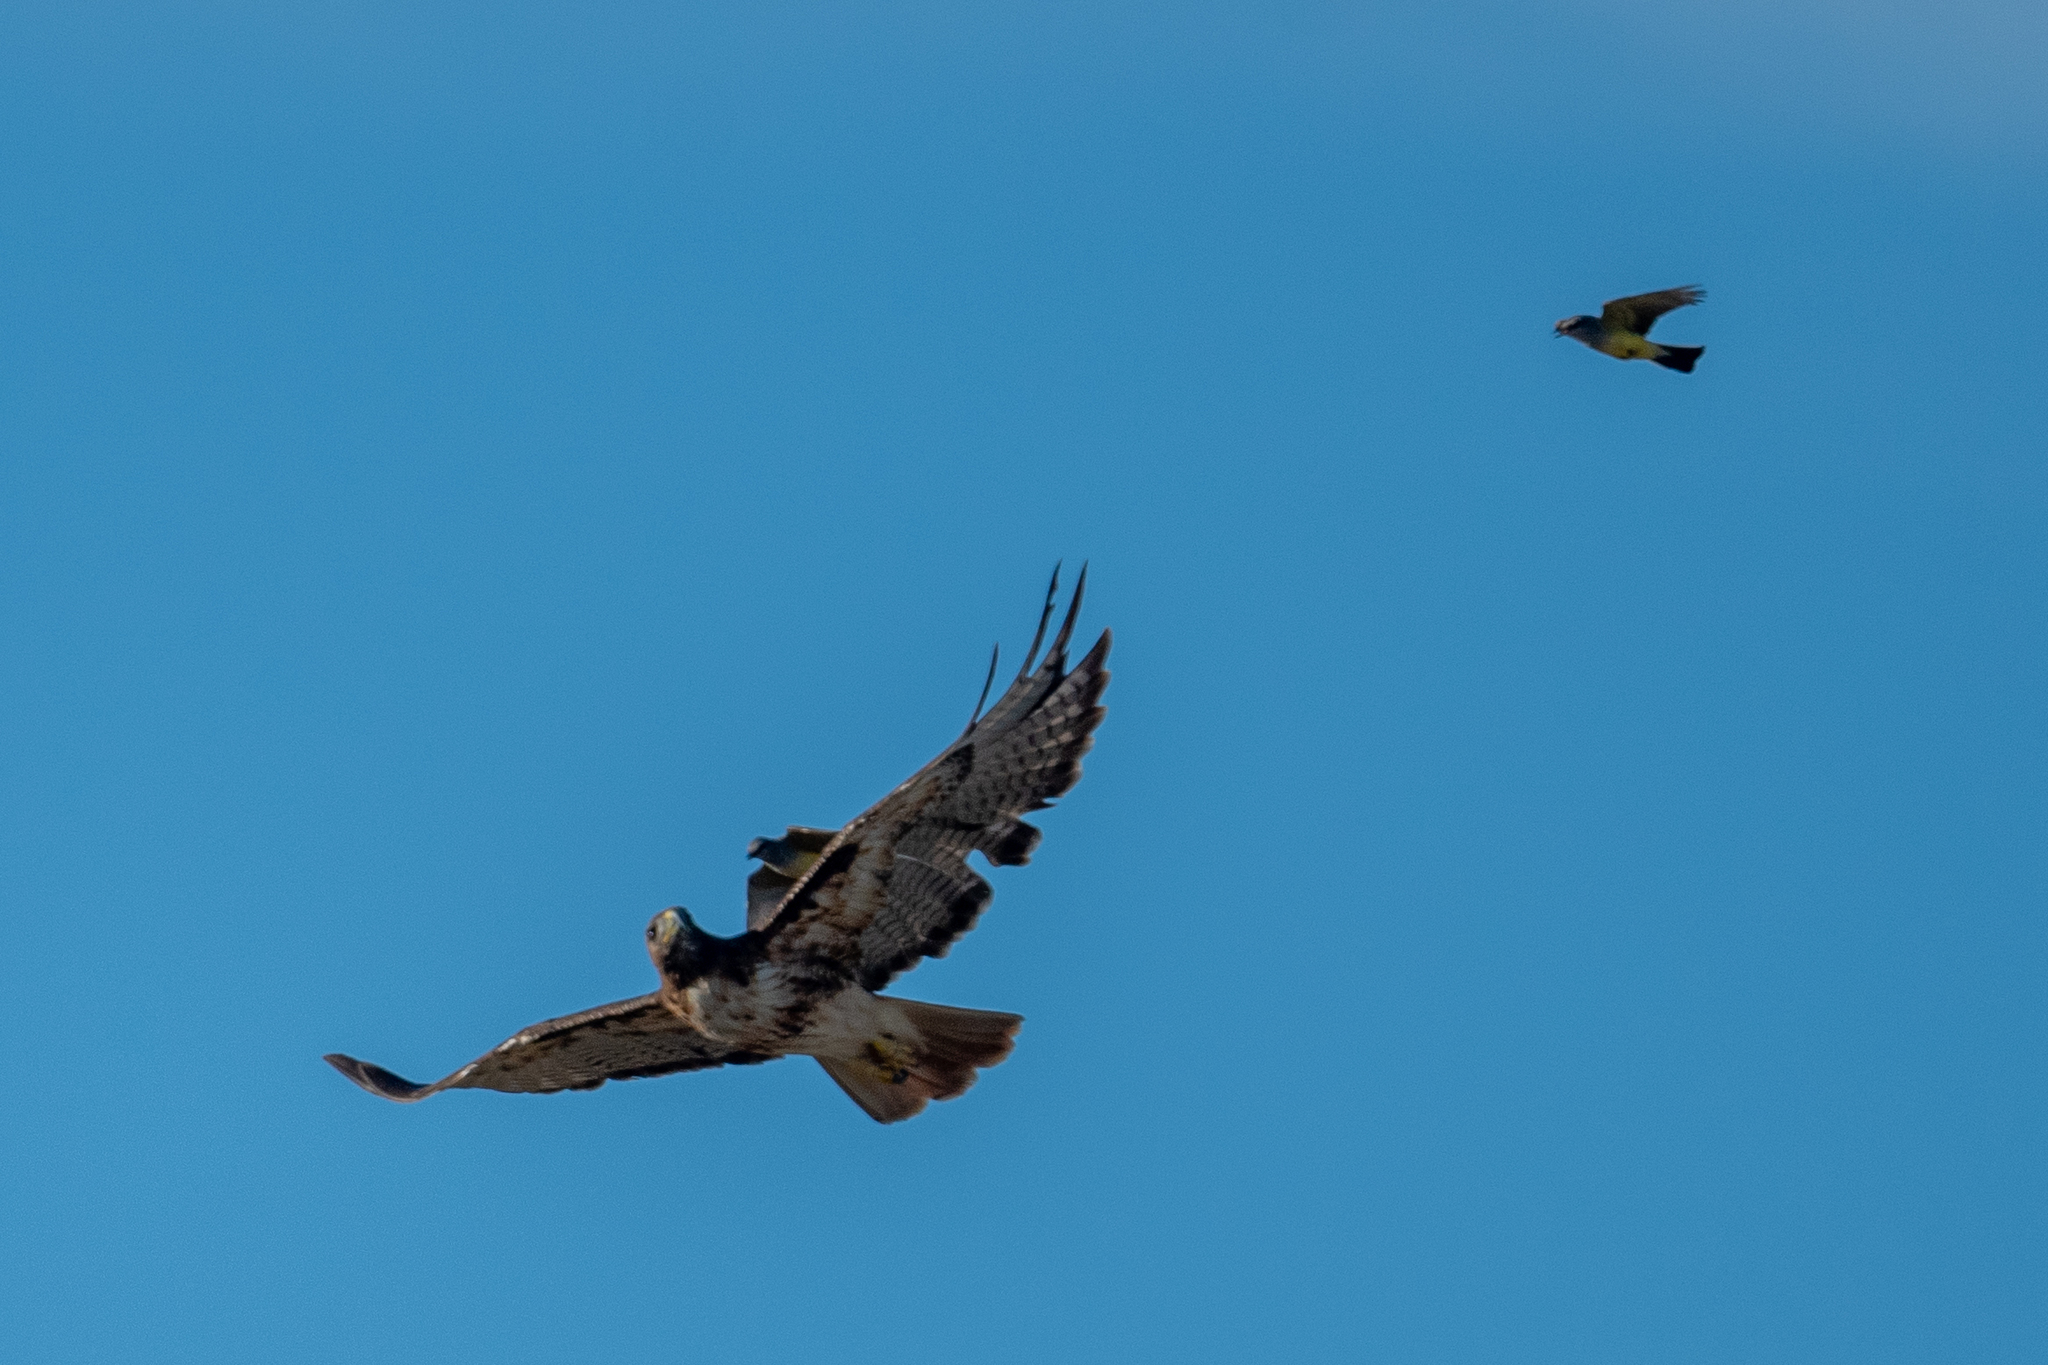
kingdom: Animalia
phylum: Chordata
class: Aves
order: Passeriformes
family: Tyrannidae
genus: Tyrannus
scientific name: Tyrannus verticalis
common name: Western kingbird
